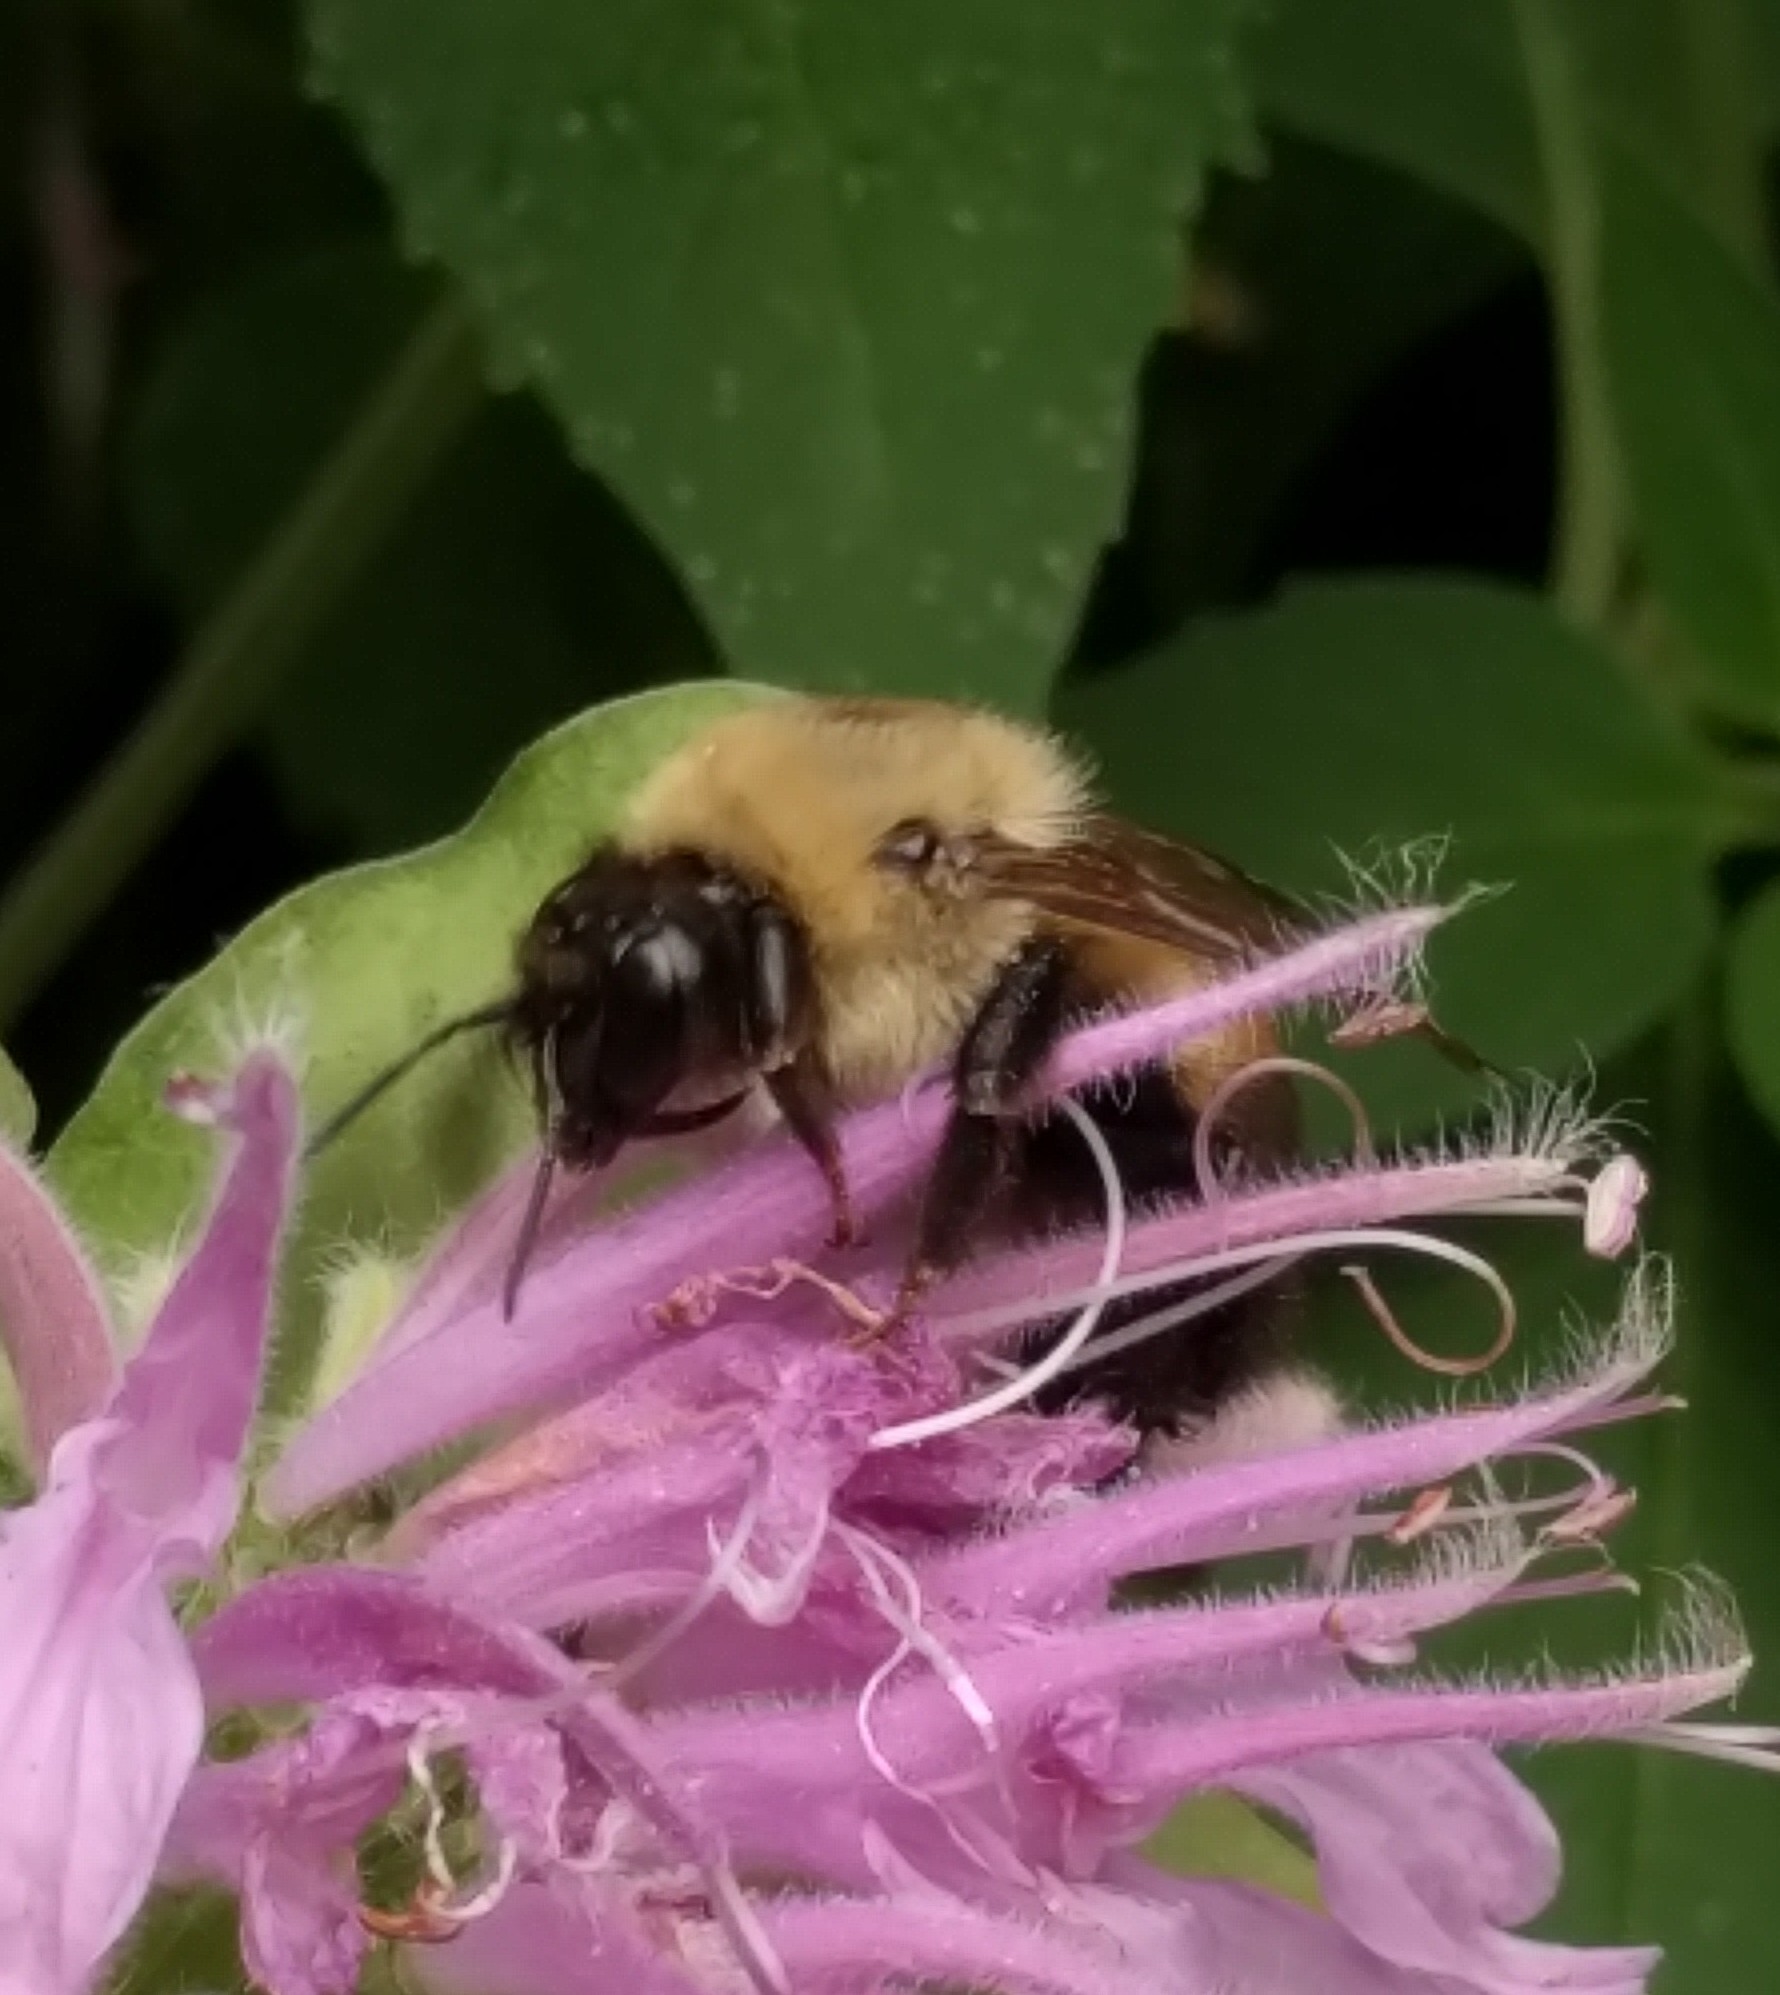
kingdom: Animalia
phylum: Arthropoda
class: Insecta
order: Hymenoptera
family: Apidae
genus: Bombus
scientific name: Bombus griseocollis
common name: Brown-belted bumble bee
